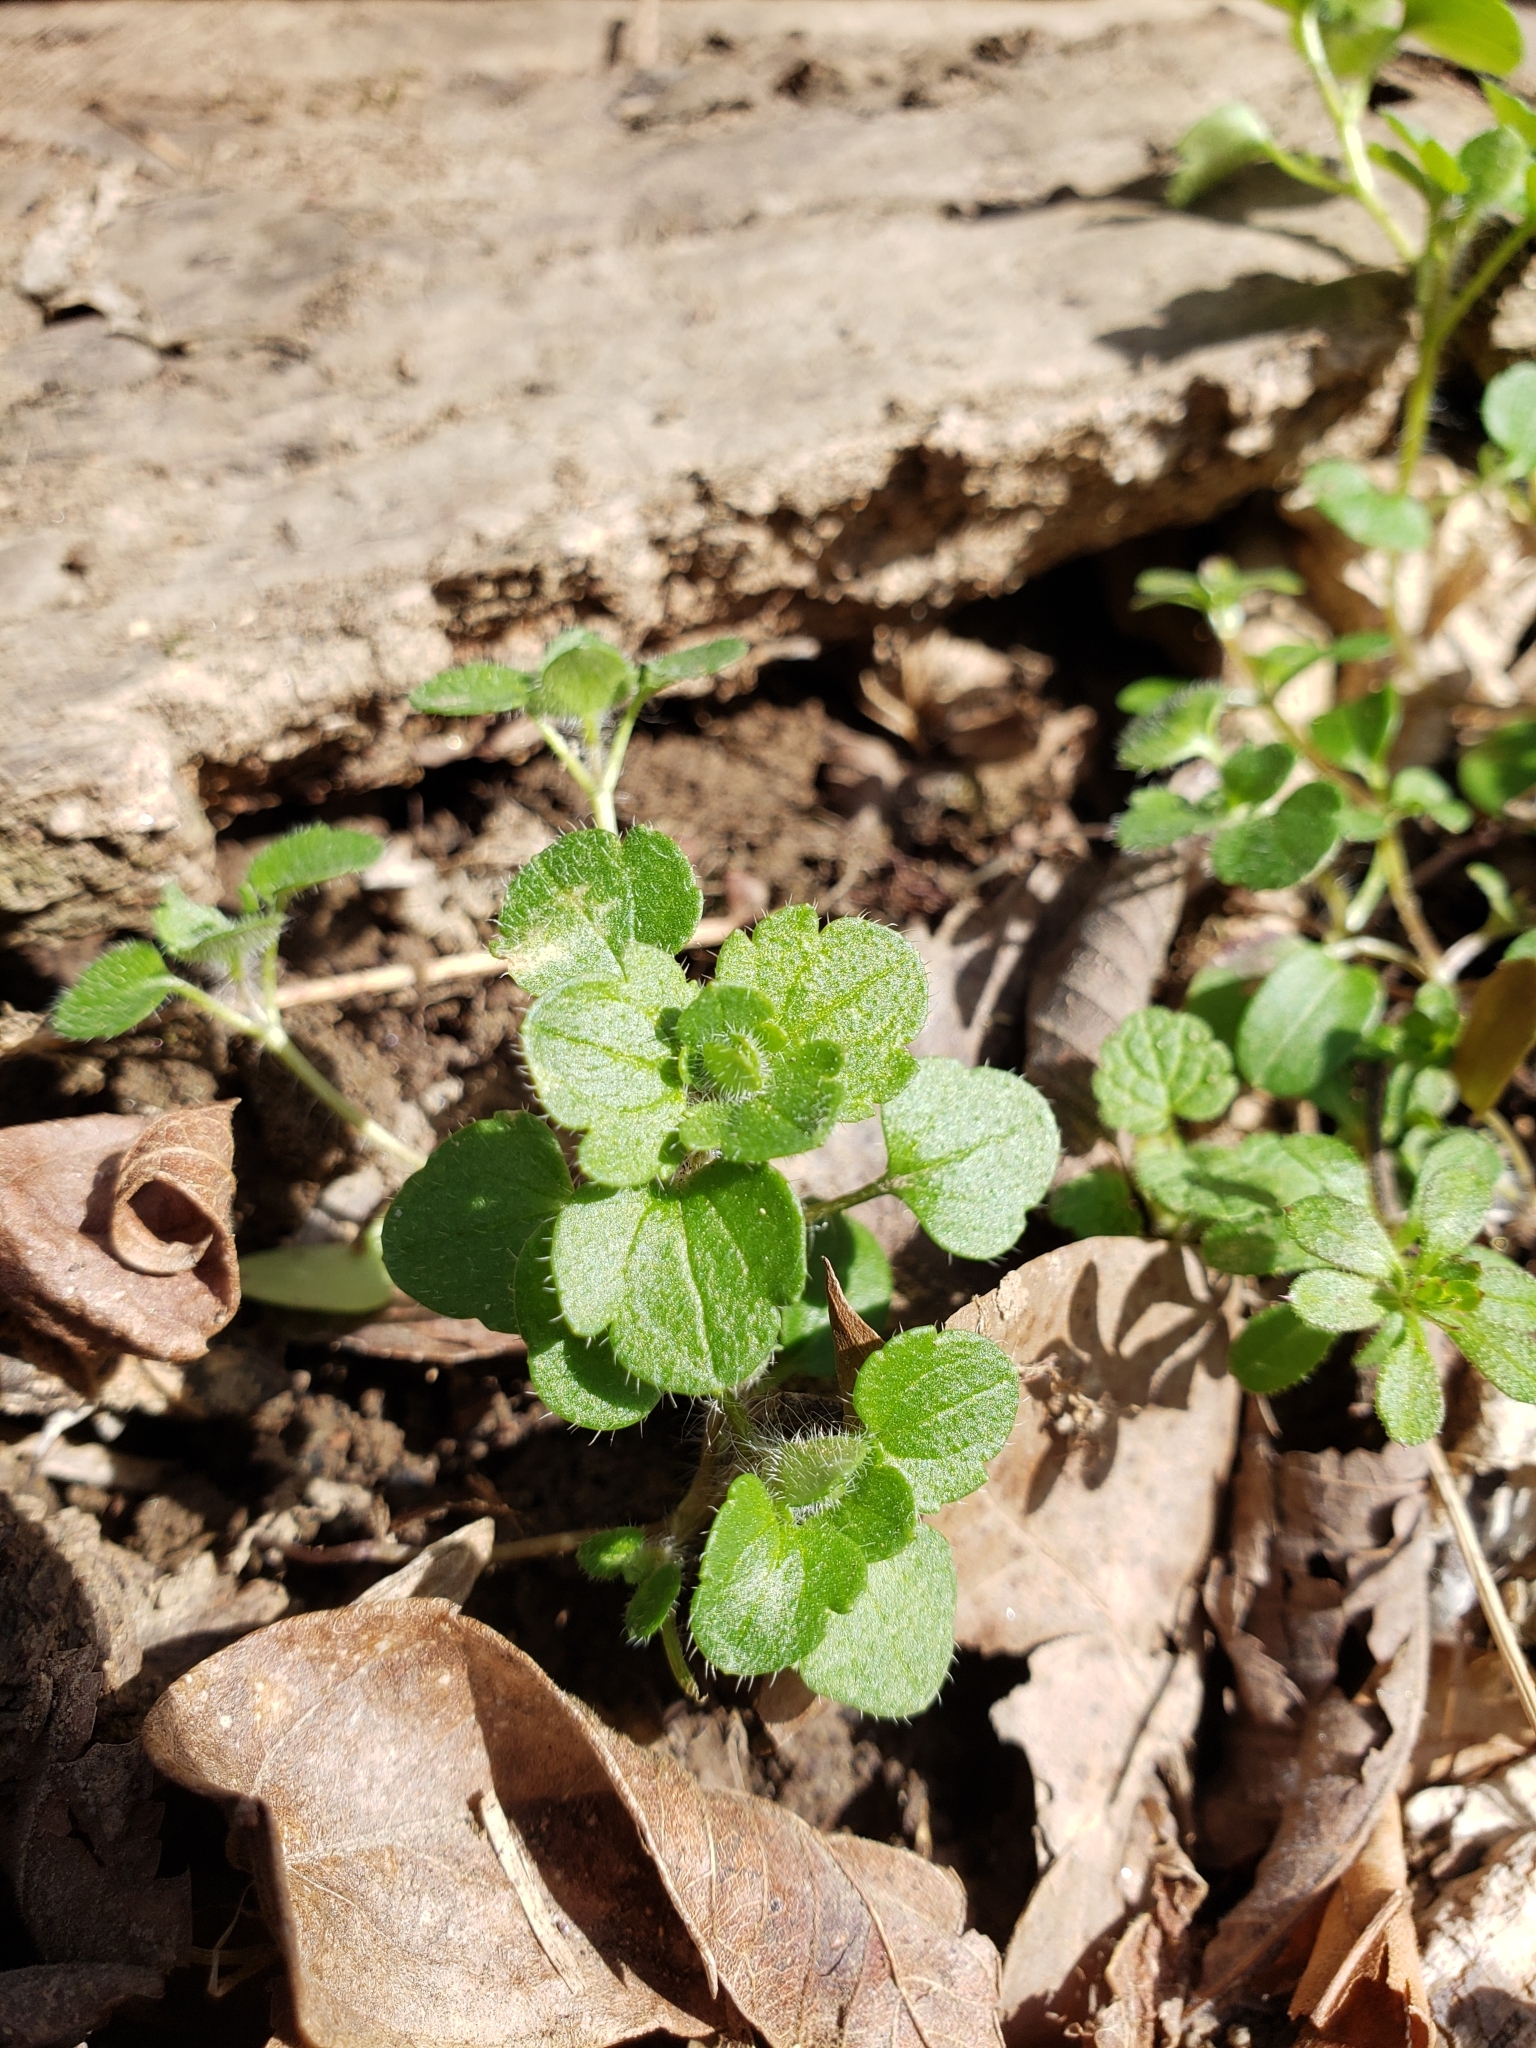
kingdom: Plantae
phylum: Tracheophyta
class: Magnoliopsida
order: Lamiales
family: Plantaginaceae
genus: Veronica
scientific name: Veronica hederifolia
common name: Ivy-leaved speedwell
